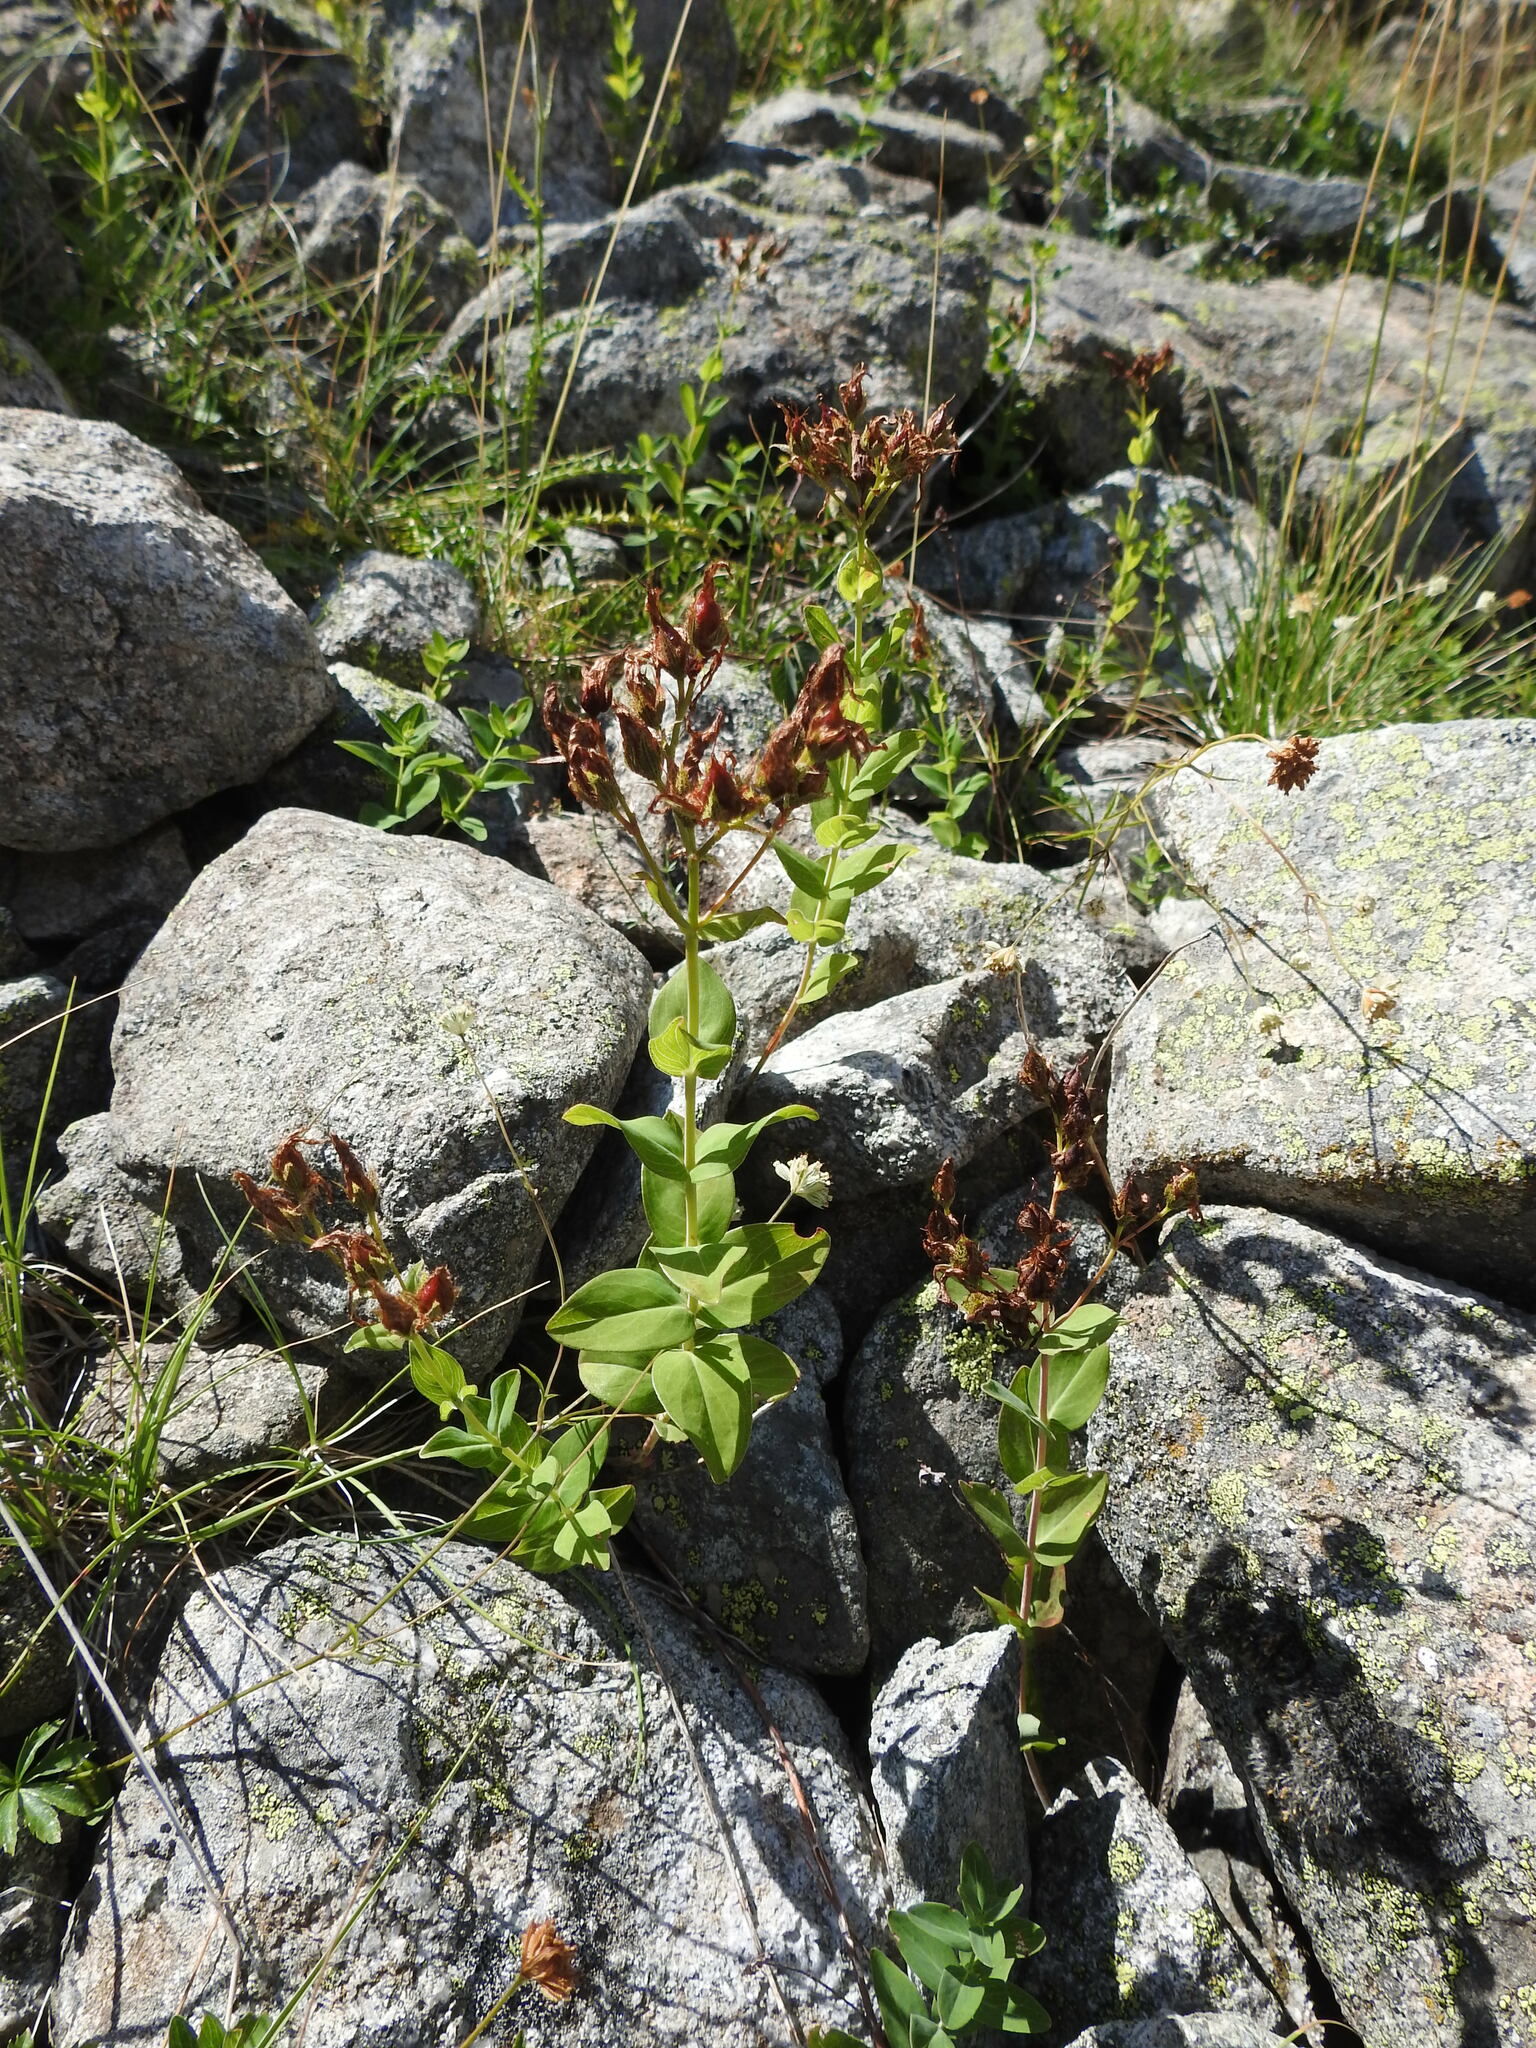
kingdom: Plantae
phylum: Tracheophyta
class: Magnoliopsida
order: Malpighiales
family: Hypericaceae
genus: Hypericum
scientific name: Hypericum richeri
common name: Alpine st john's-wort
